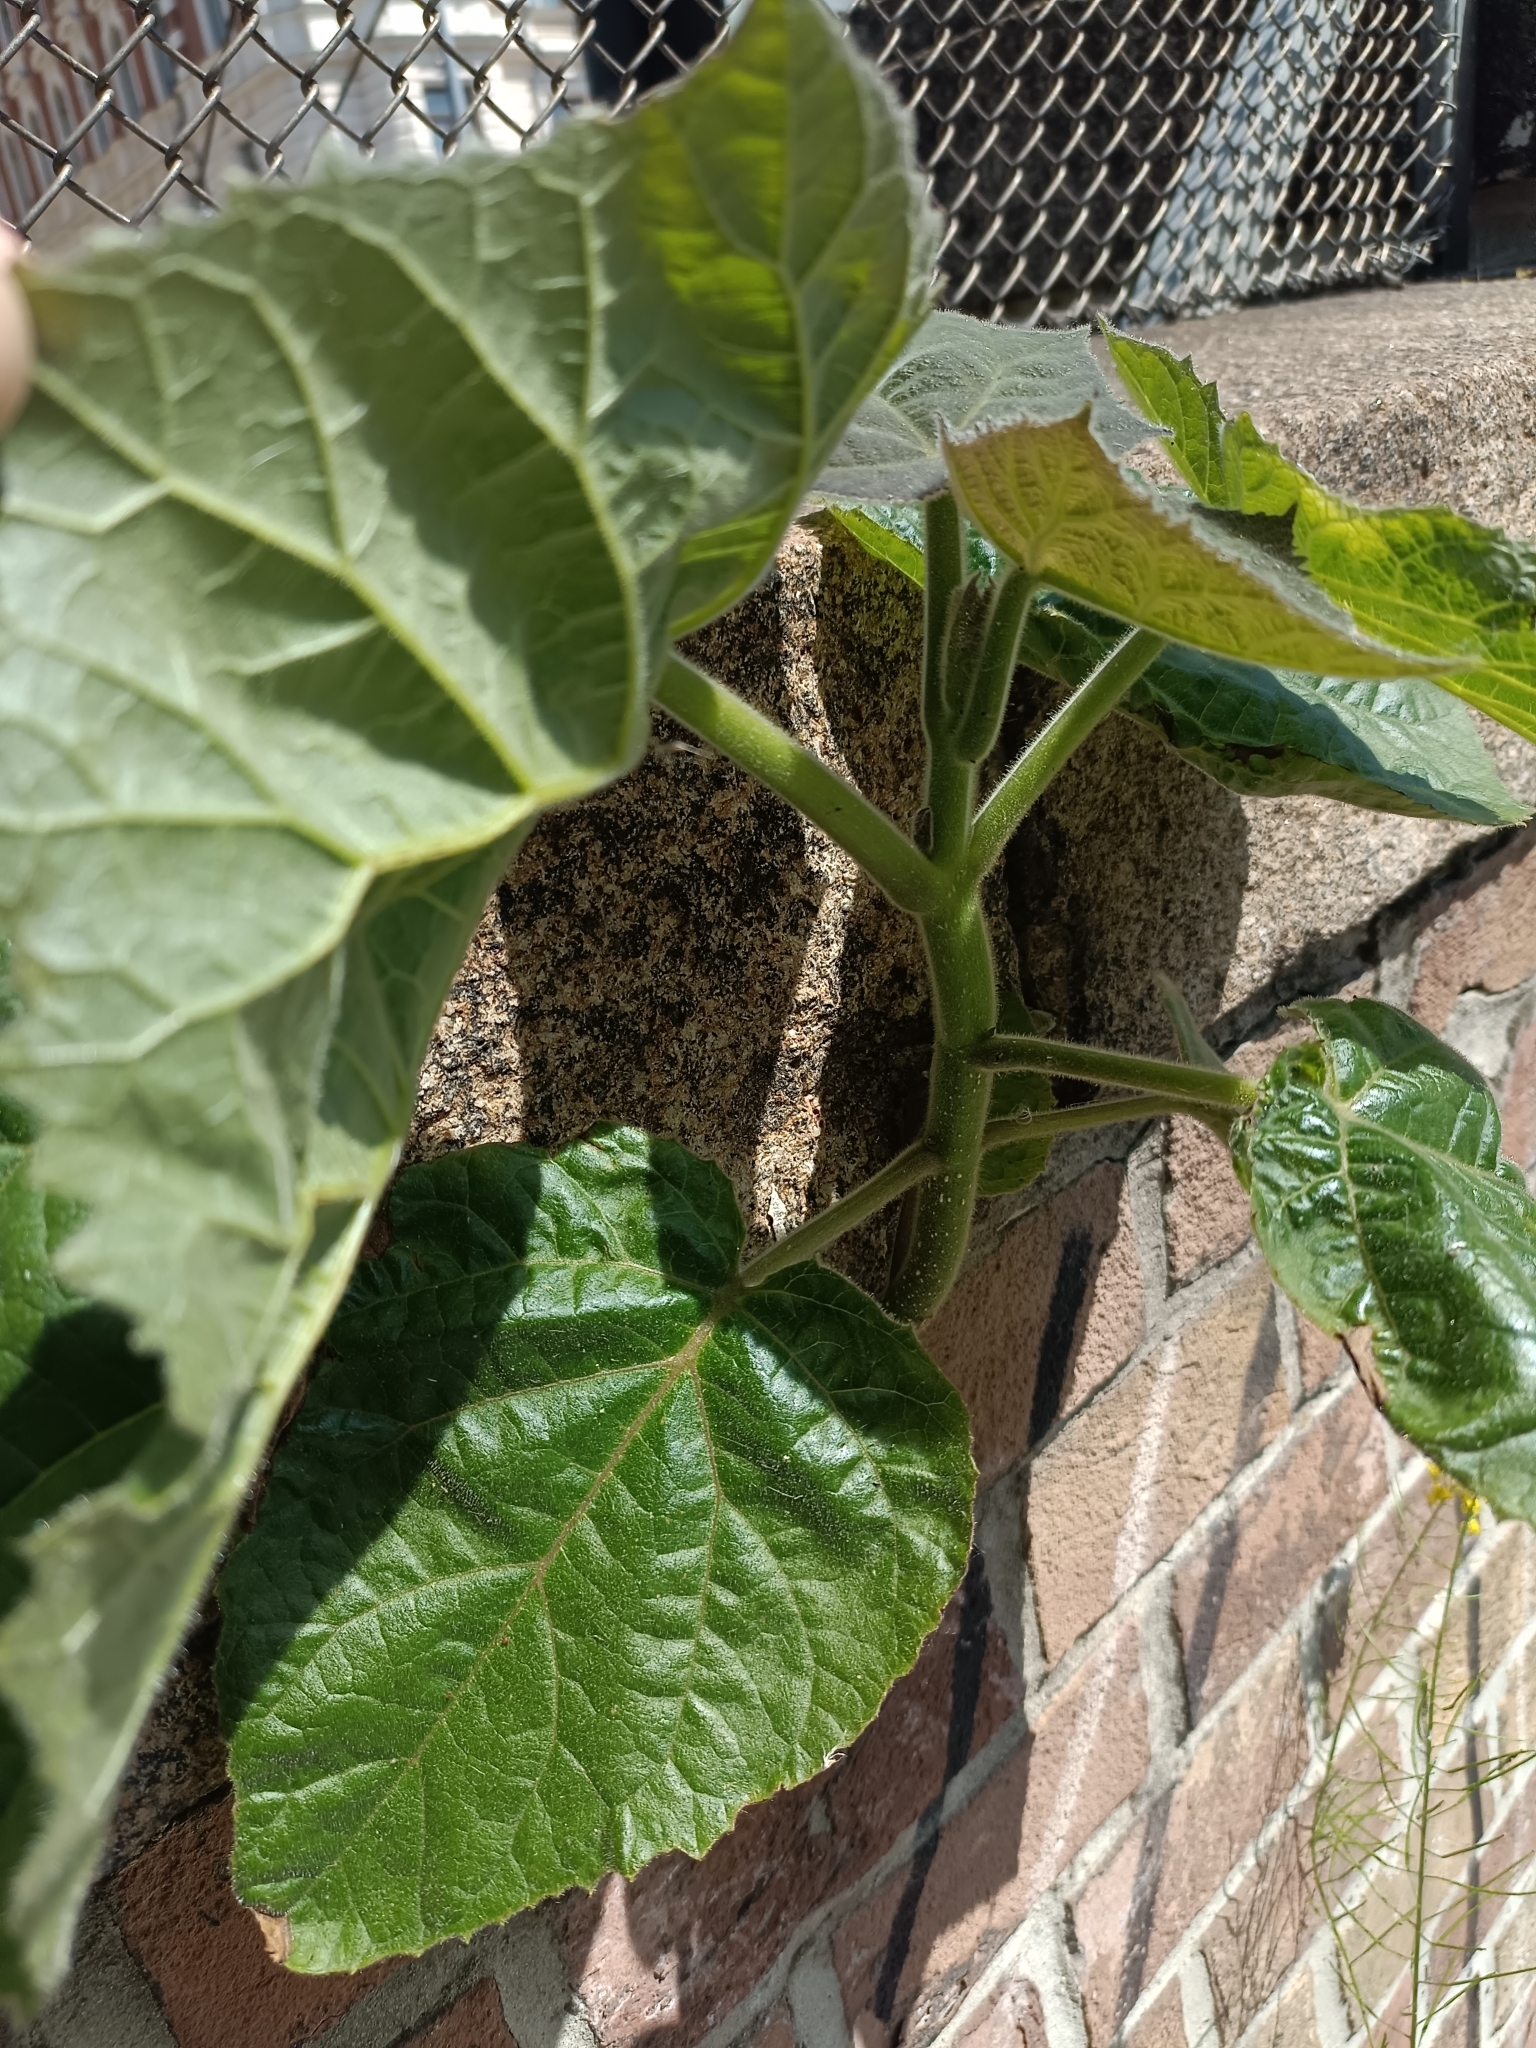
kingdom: Plantae
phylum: Tracheophyta
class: Magnoliopsida
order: Lamiales
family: Paulowniaceae
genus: Paulownia
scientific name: Paulownia tomentosa
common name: Foxglove-tree
